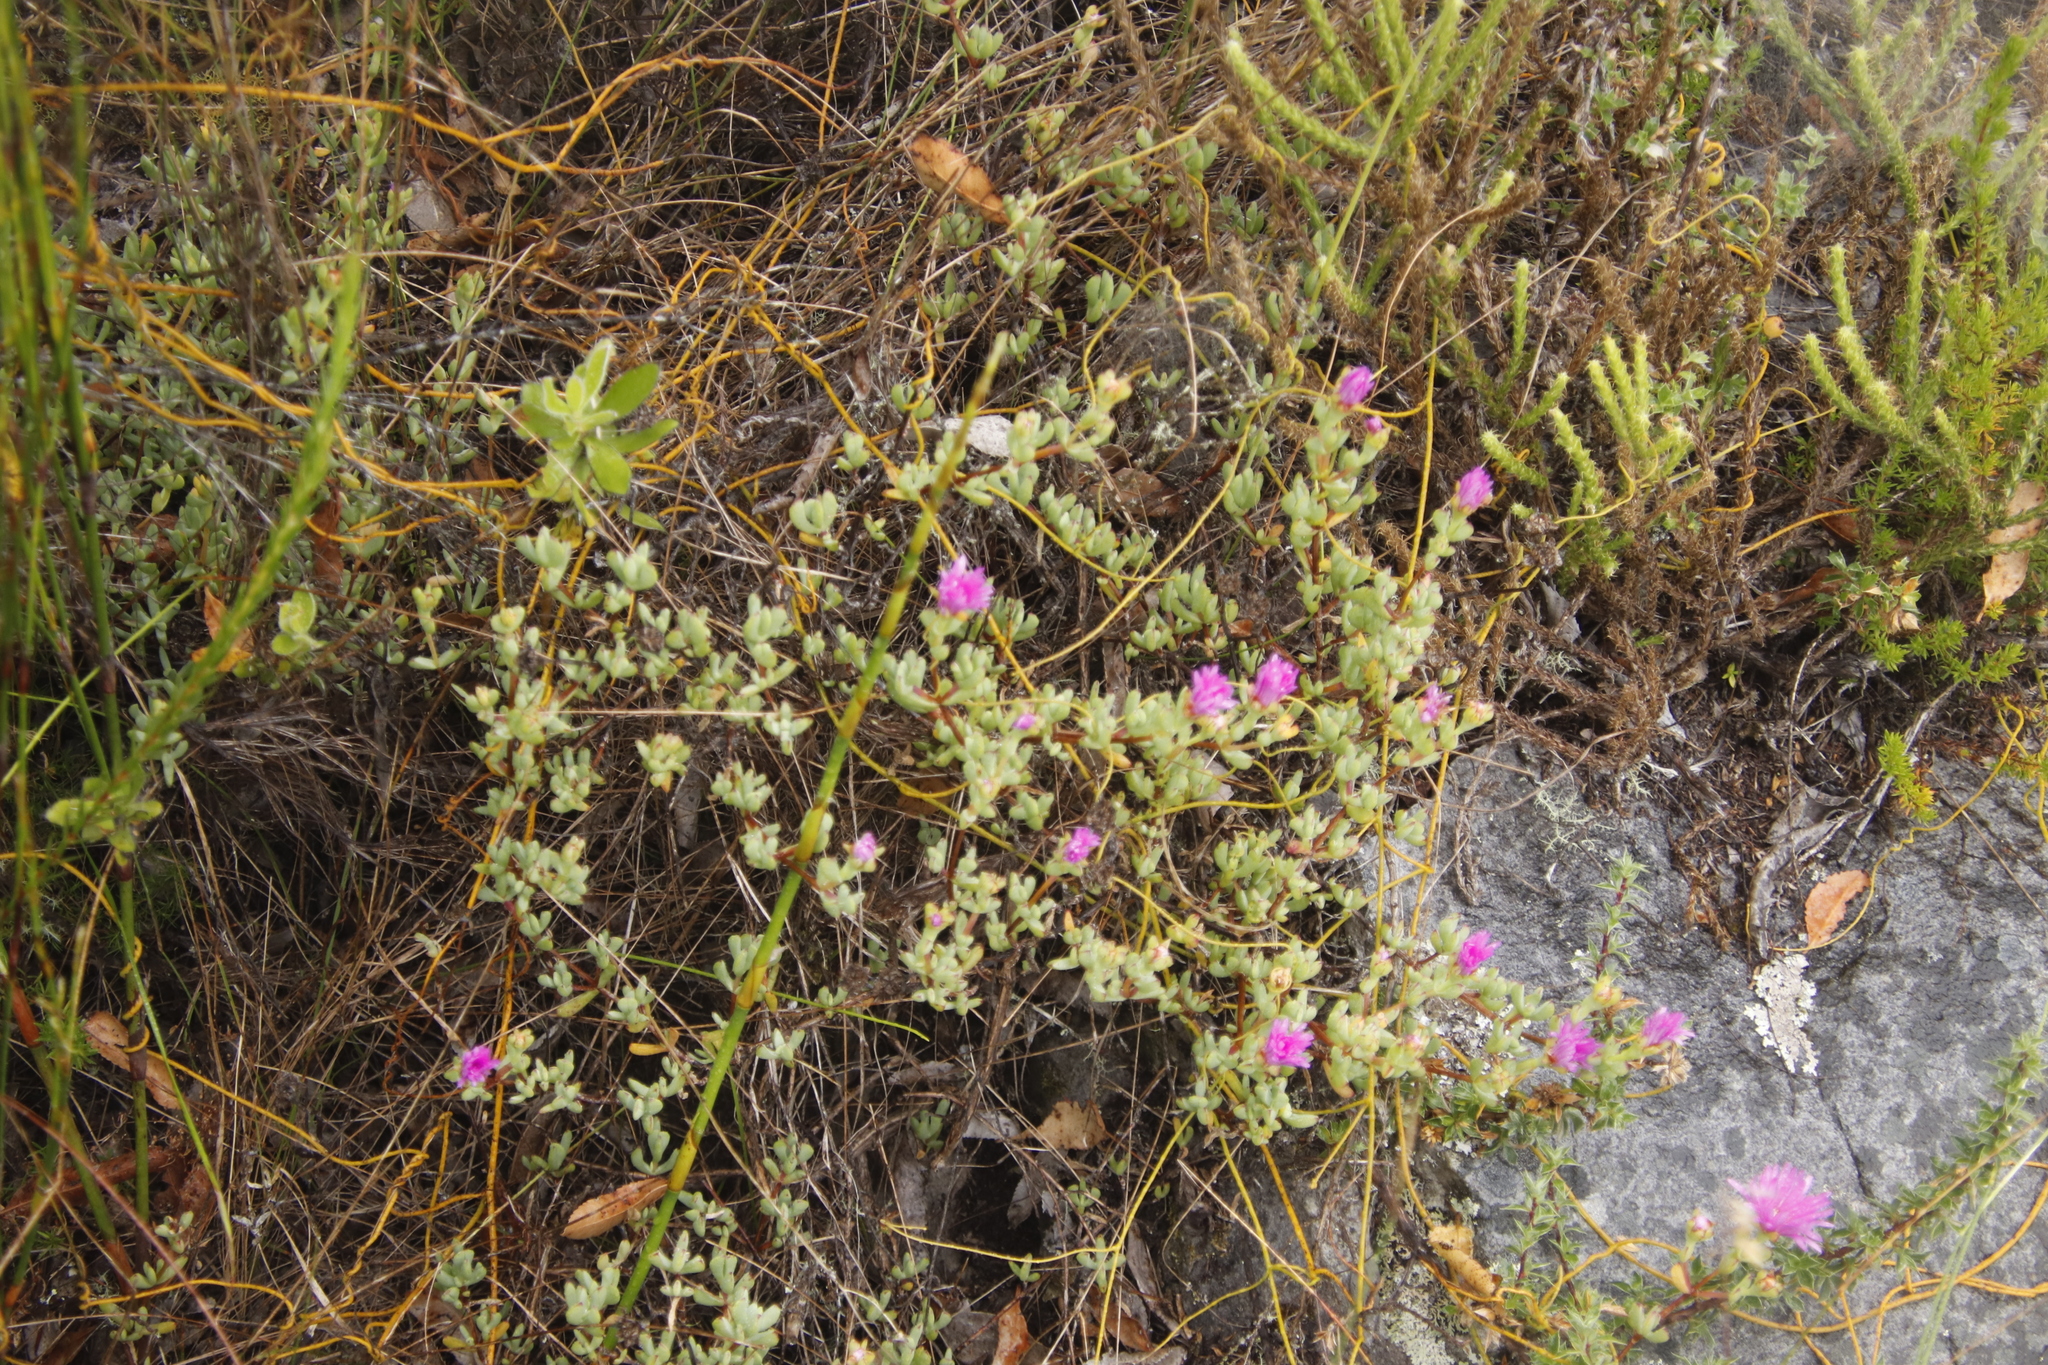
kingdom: Plantae
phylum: Tracheophyta
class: Magnoliopsida
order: Caryophyllales
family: Aizoaceae
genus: Oscularia
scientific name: Oscularia falciformis
